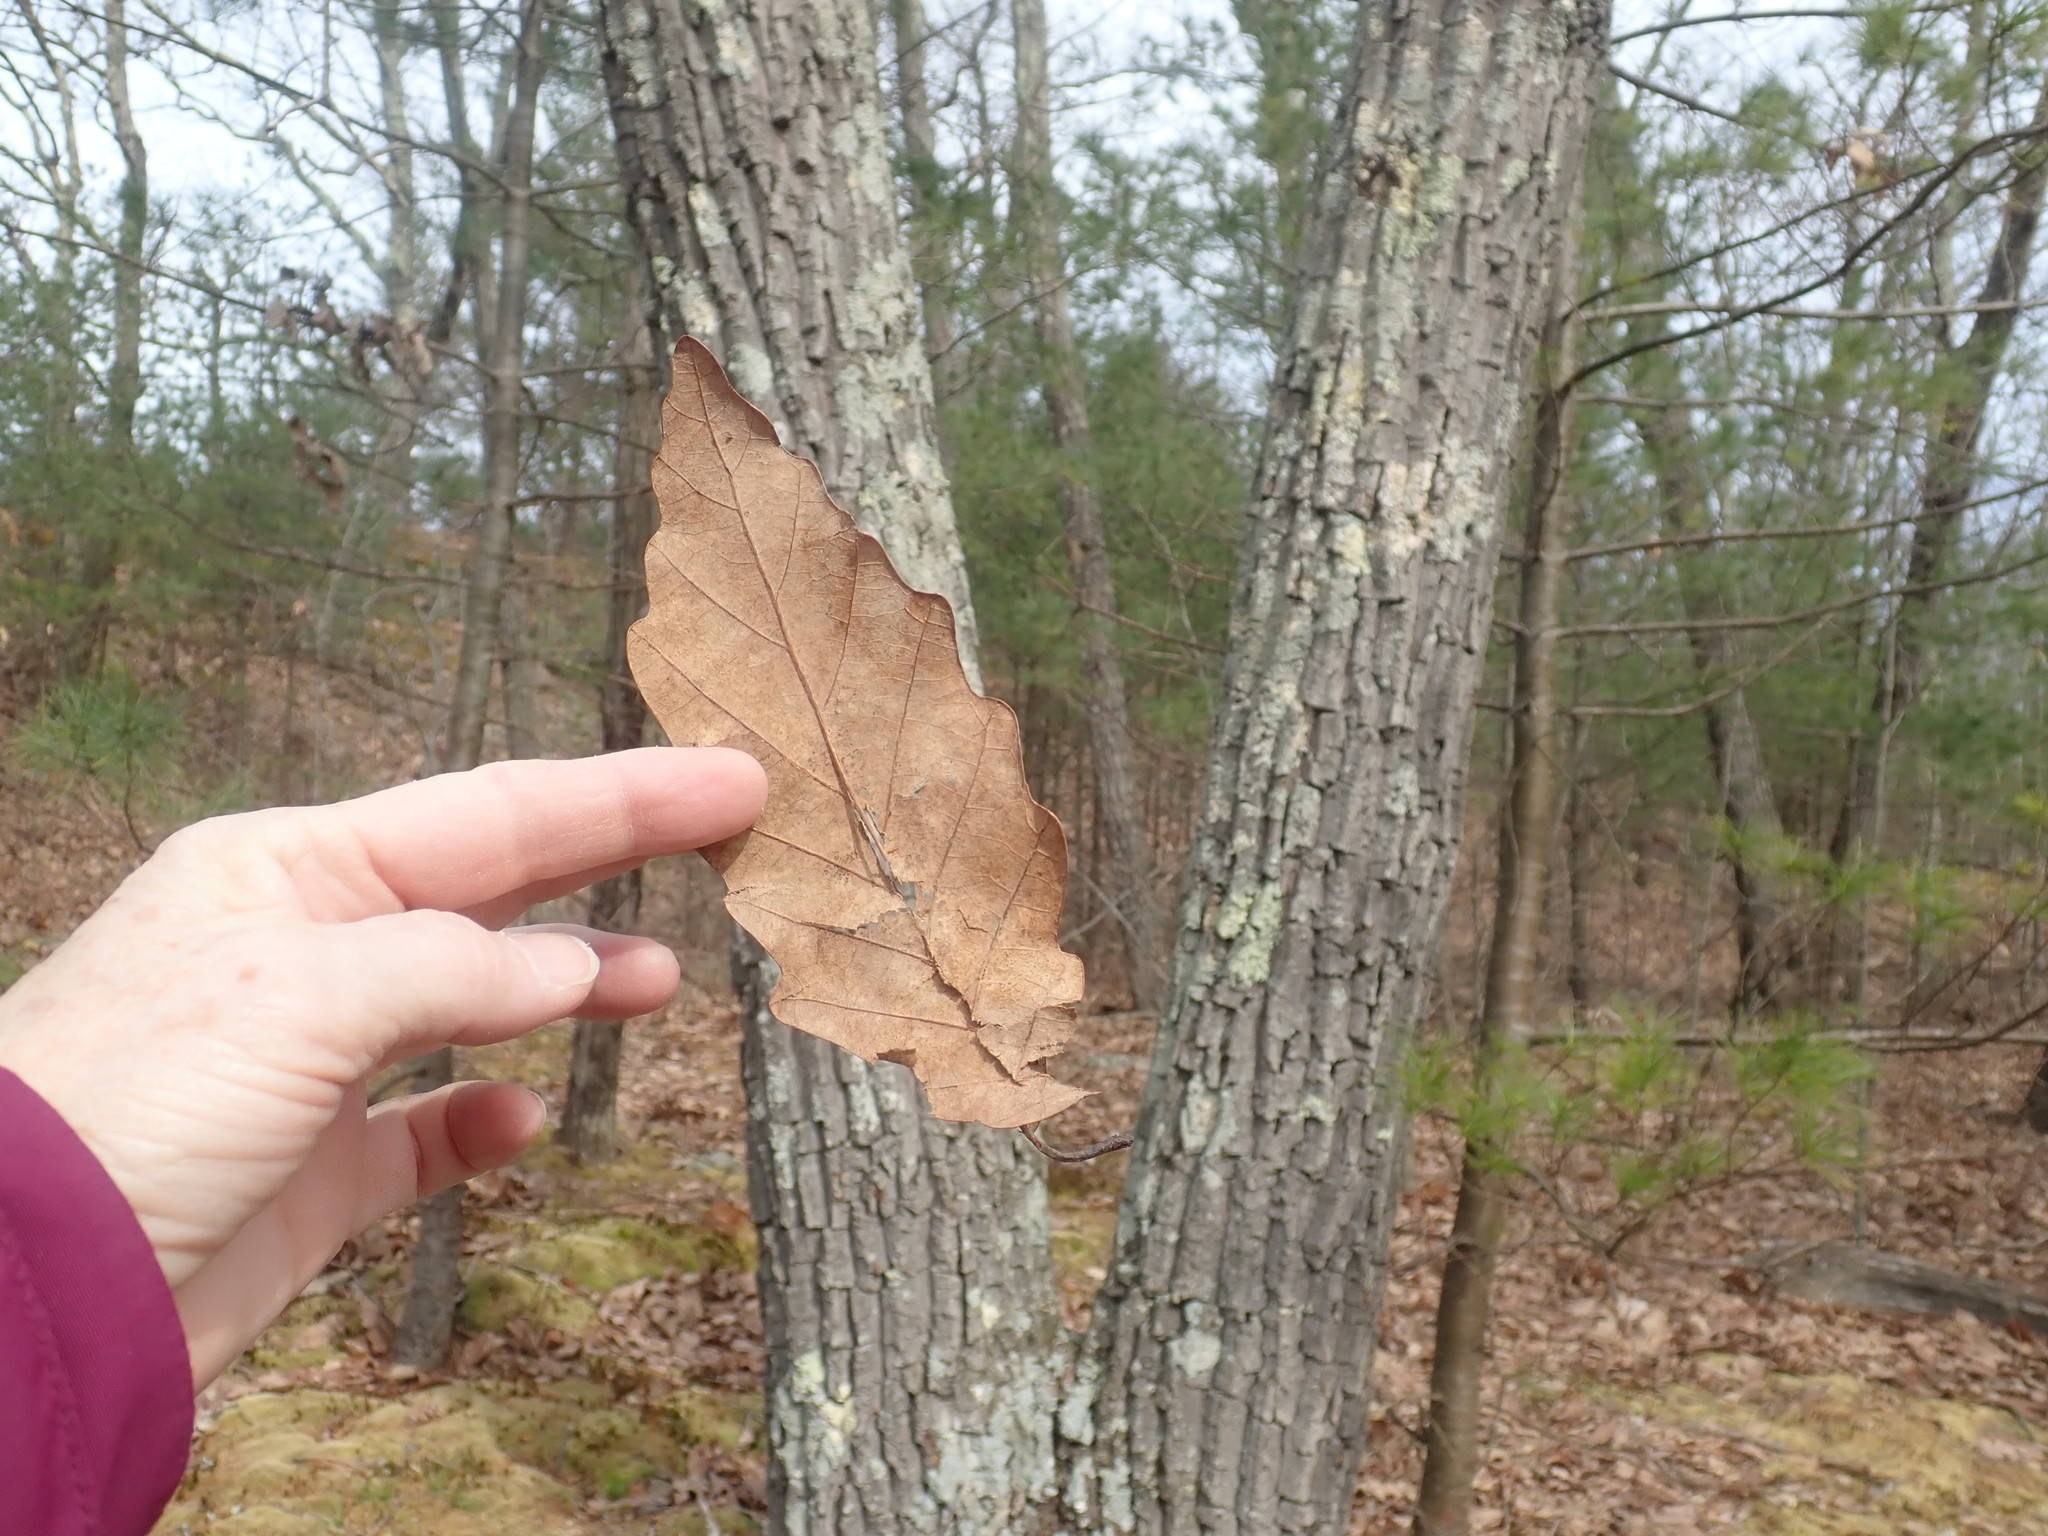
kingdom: Plantae
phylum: Tracheophyta
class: Magnoliopsida
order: Fagales
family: Fagaceae
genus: Quercus
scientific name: Quercus montana
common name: Chestnut oak
